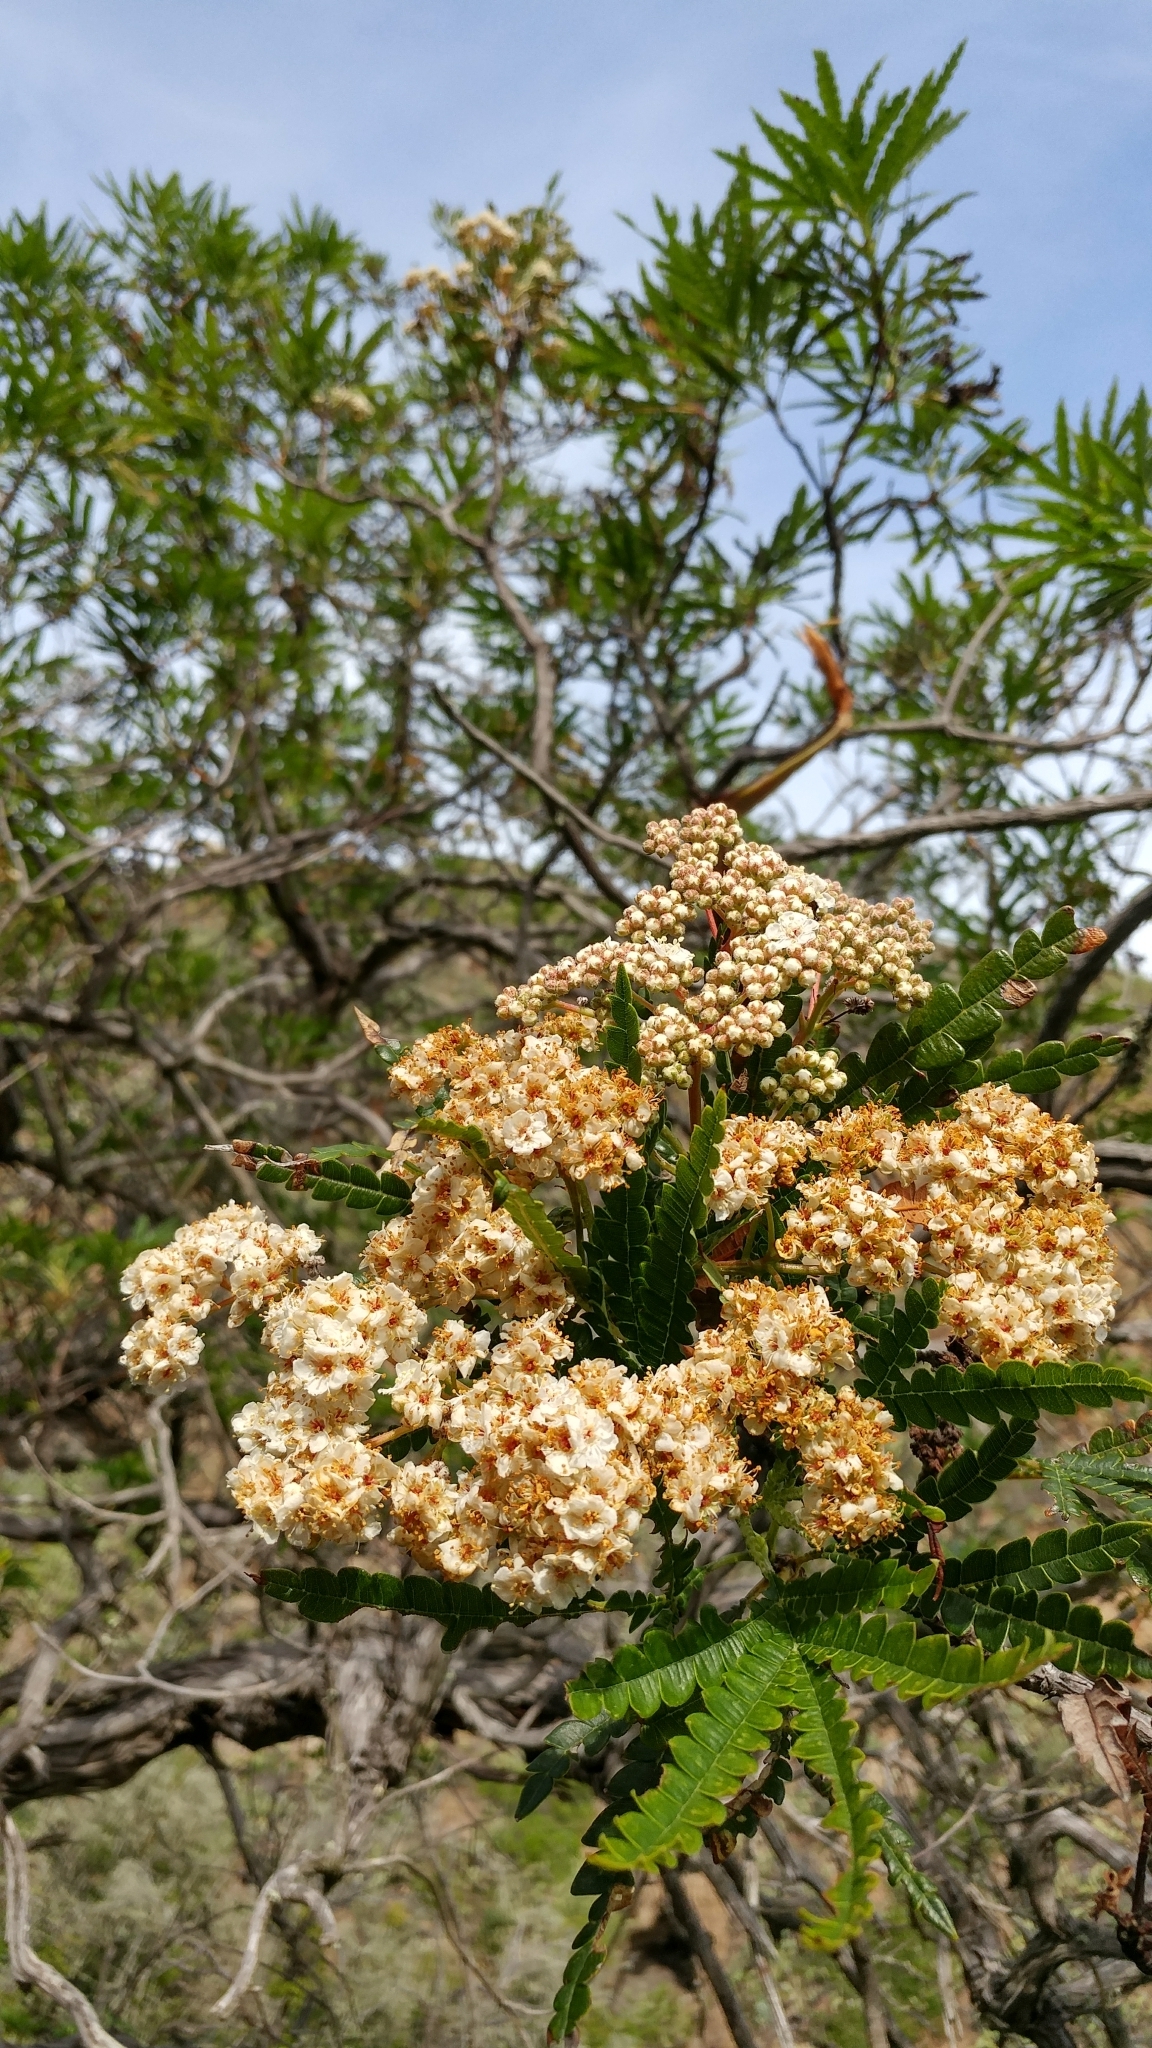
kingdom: Plantae
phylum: Tracheophyta
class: Magnoliopsida
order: Rosales
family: Rosaceae
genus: Lyonothamnus
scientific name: Lyonothamnus floribundus
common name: Catalina ironwood
